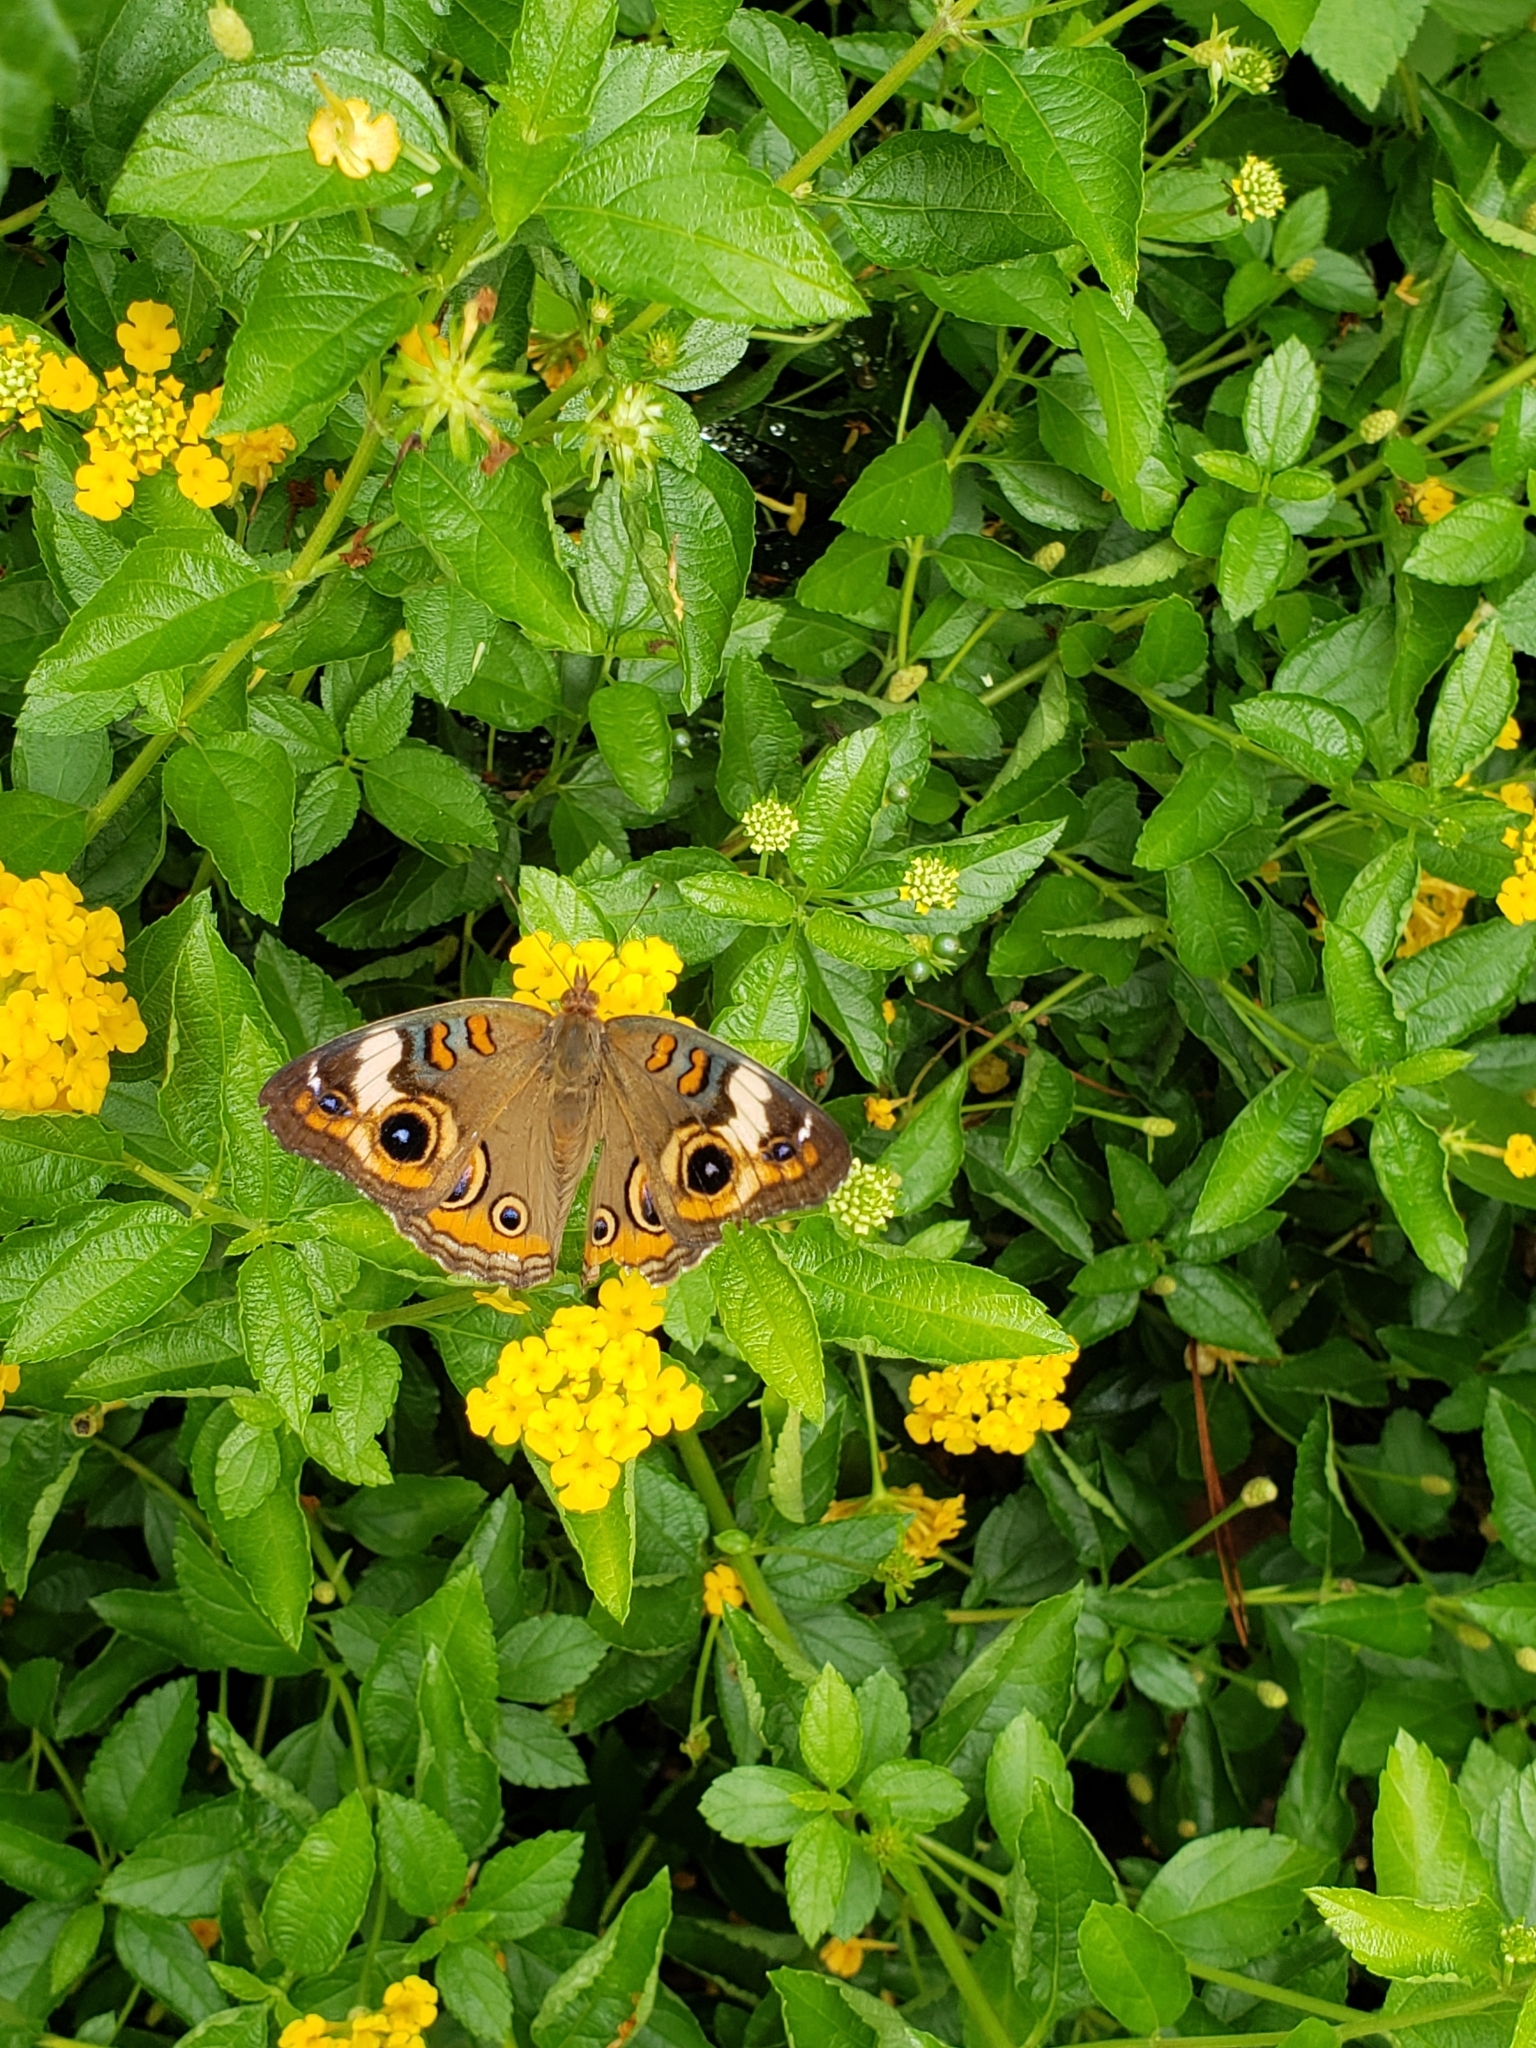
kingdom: Animalia
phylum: Arthropoda
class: Insecta
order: Lepidoptera
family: Nymphalidae
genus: Junonia
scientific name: Junonia coenia
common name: Common buckeye
